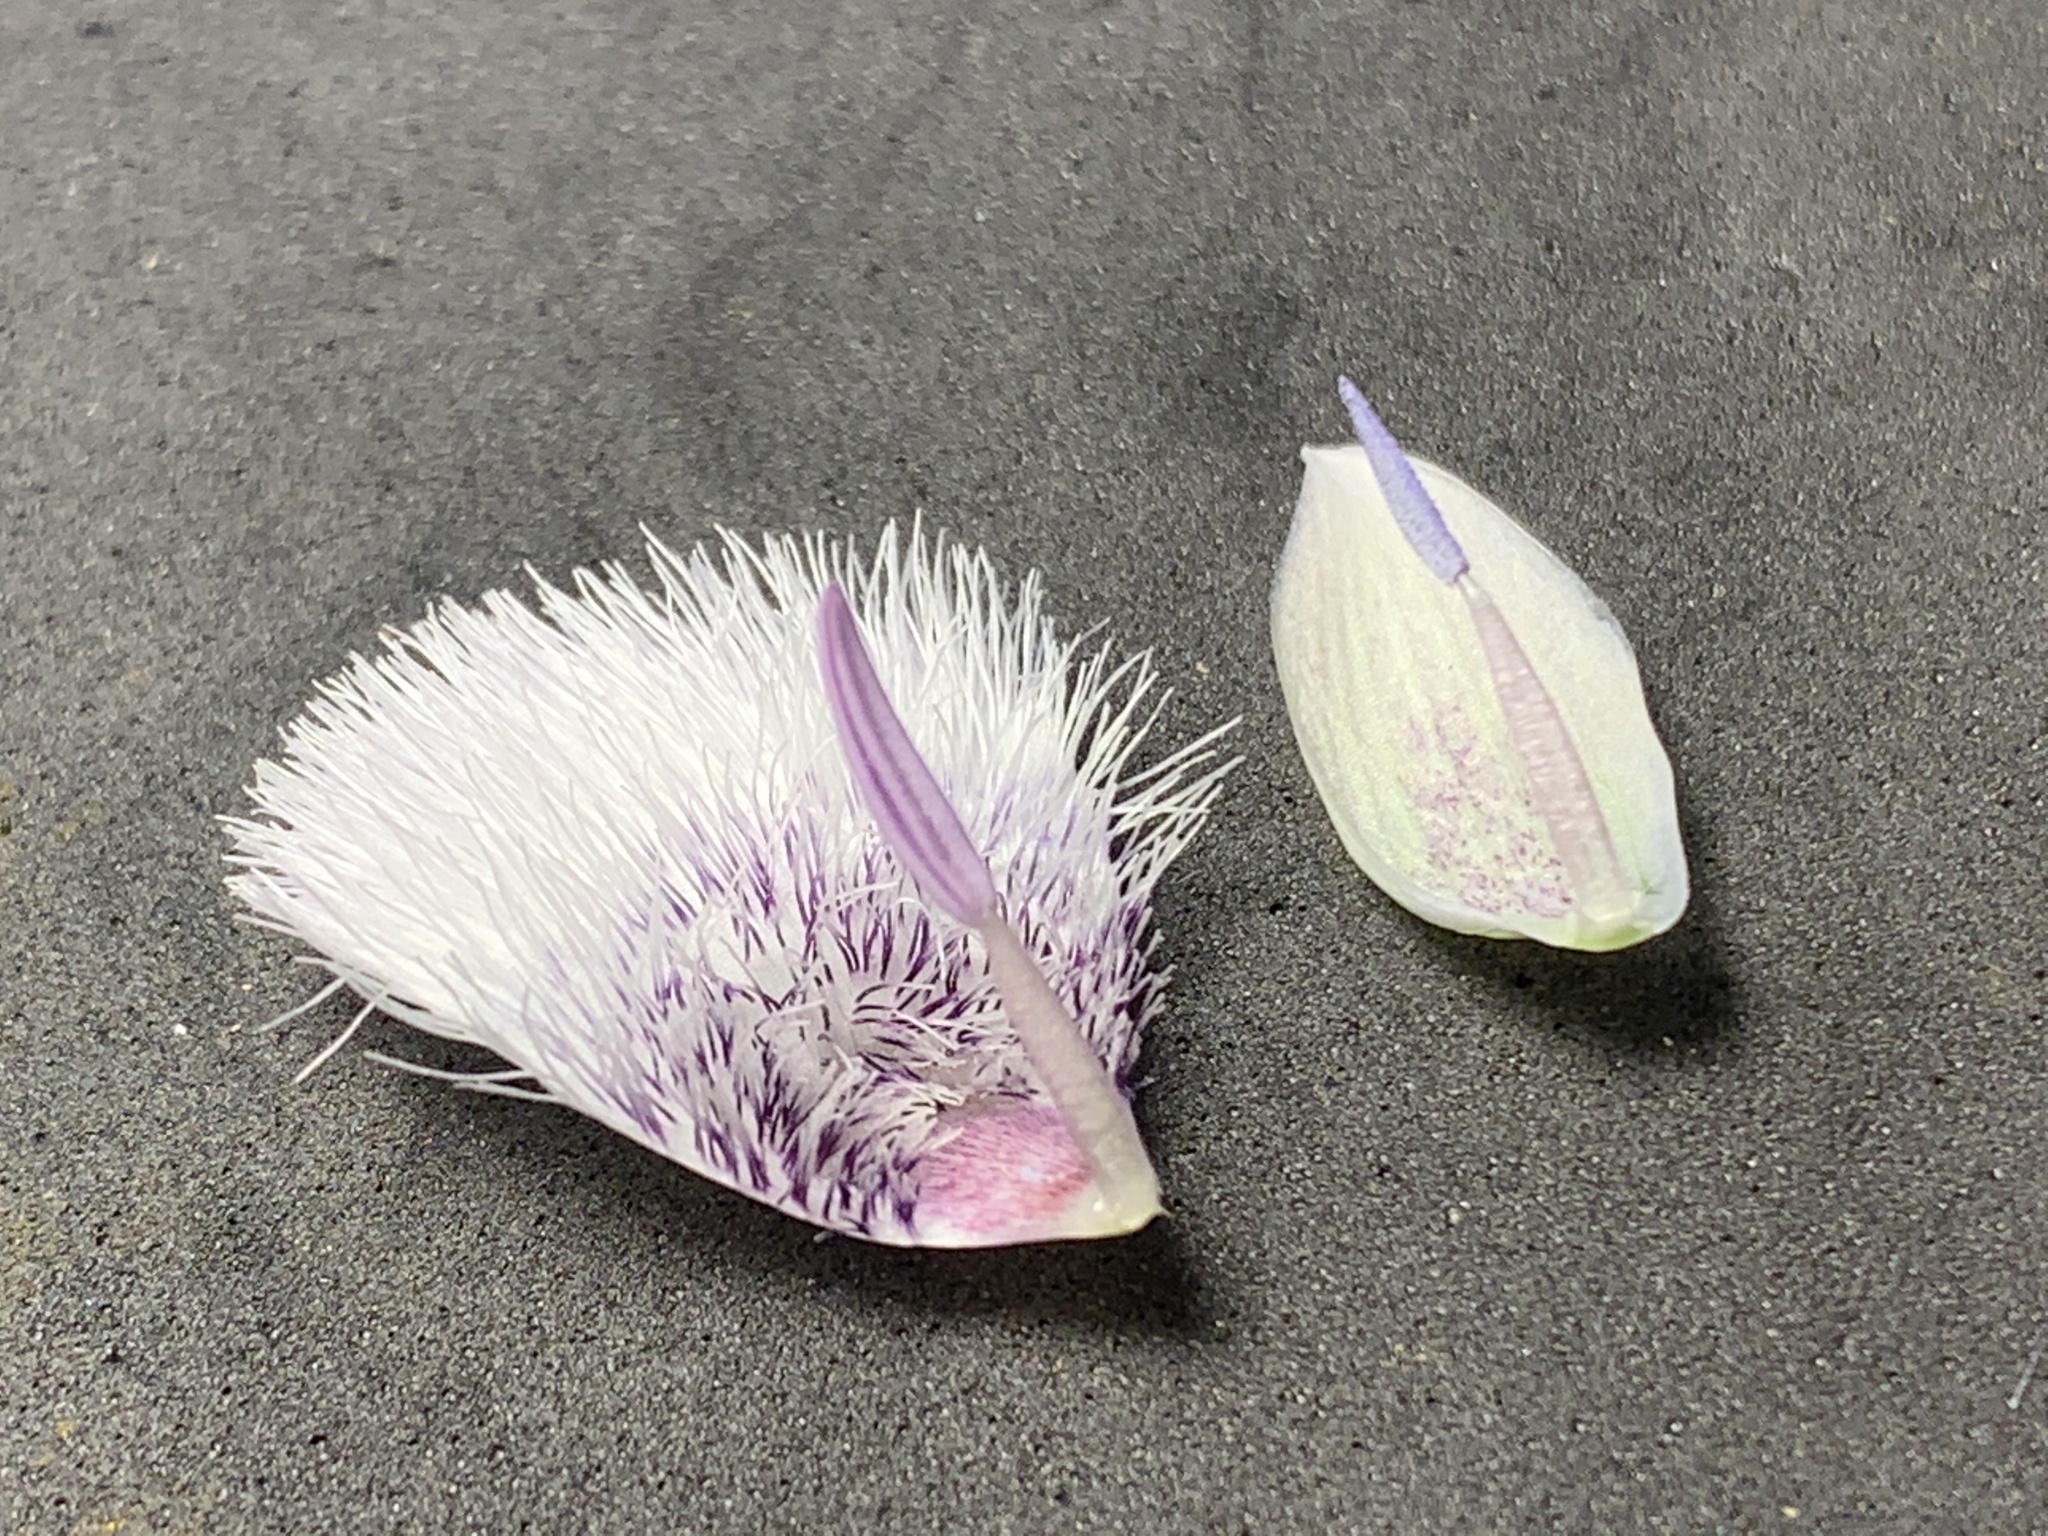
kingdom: Plantae
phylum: Tracheophyta
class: Liliopsida
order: Liliales
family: Liliaceae
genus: Calochortus
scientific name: Calochortus tolmiei
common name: Pussy-ears
